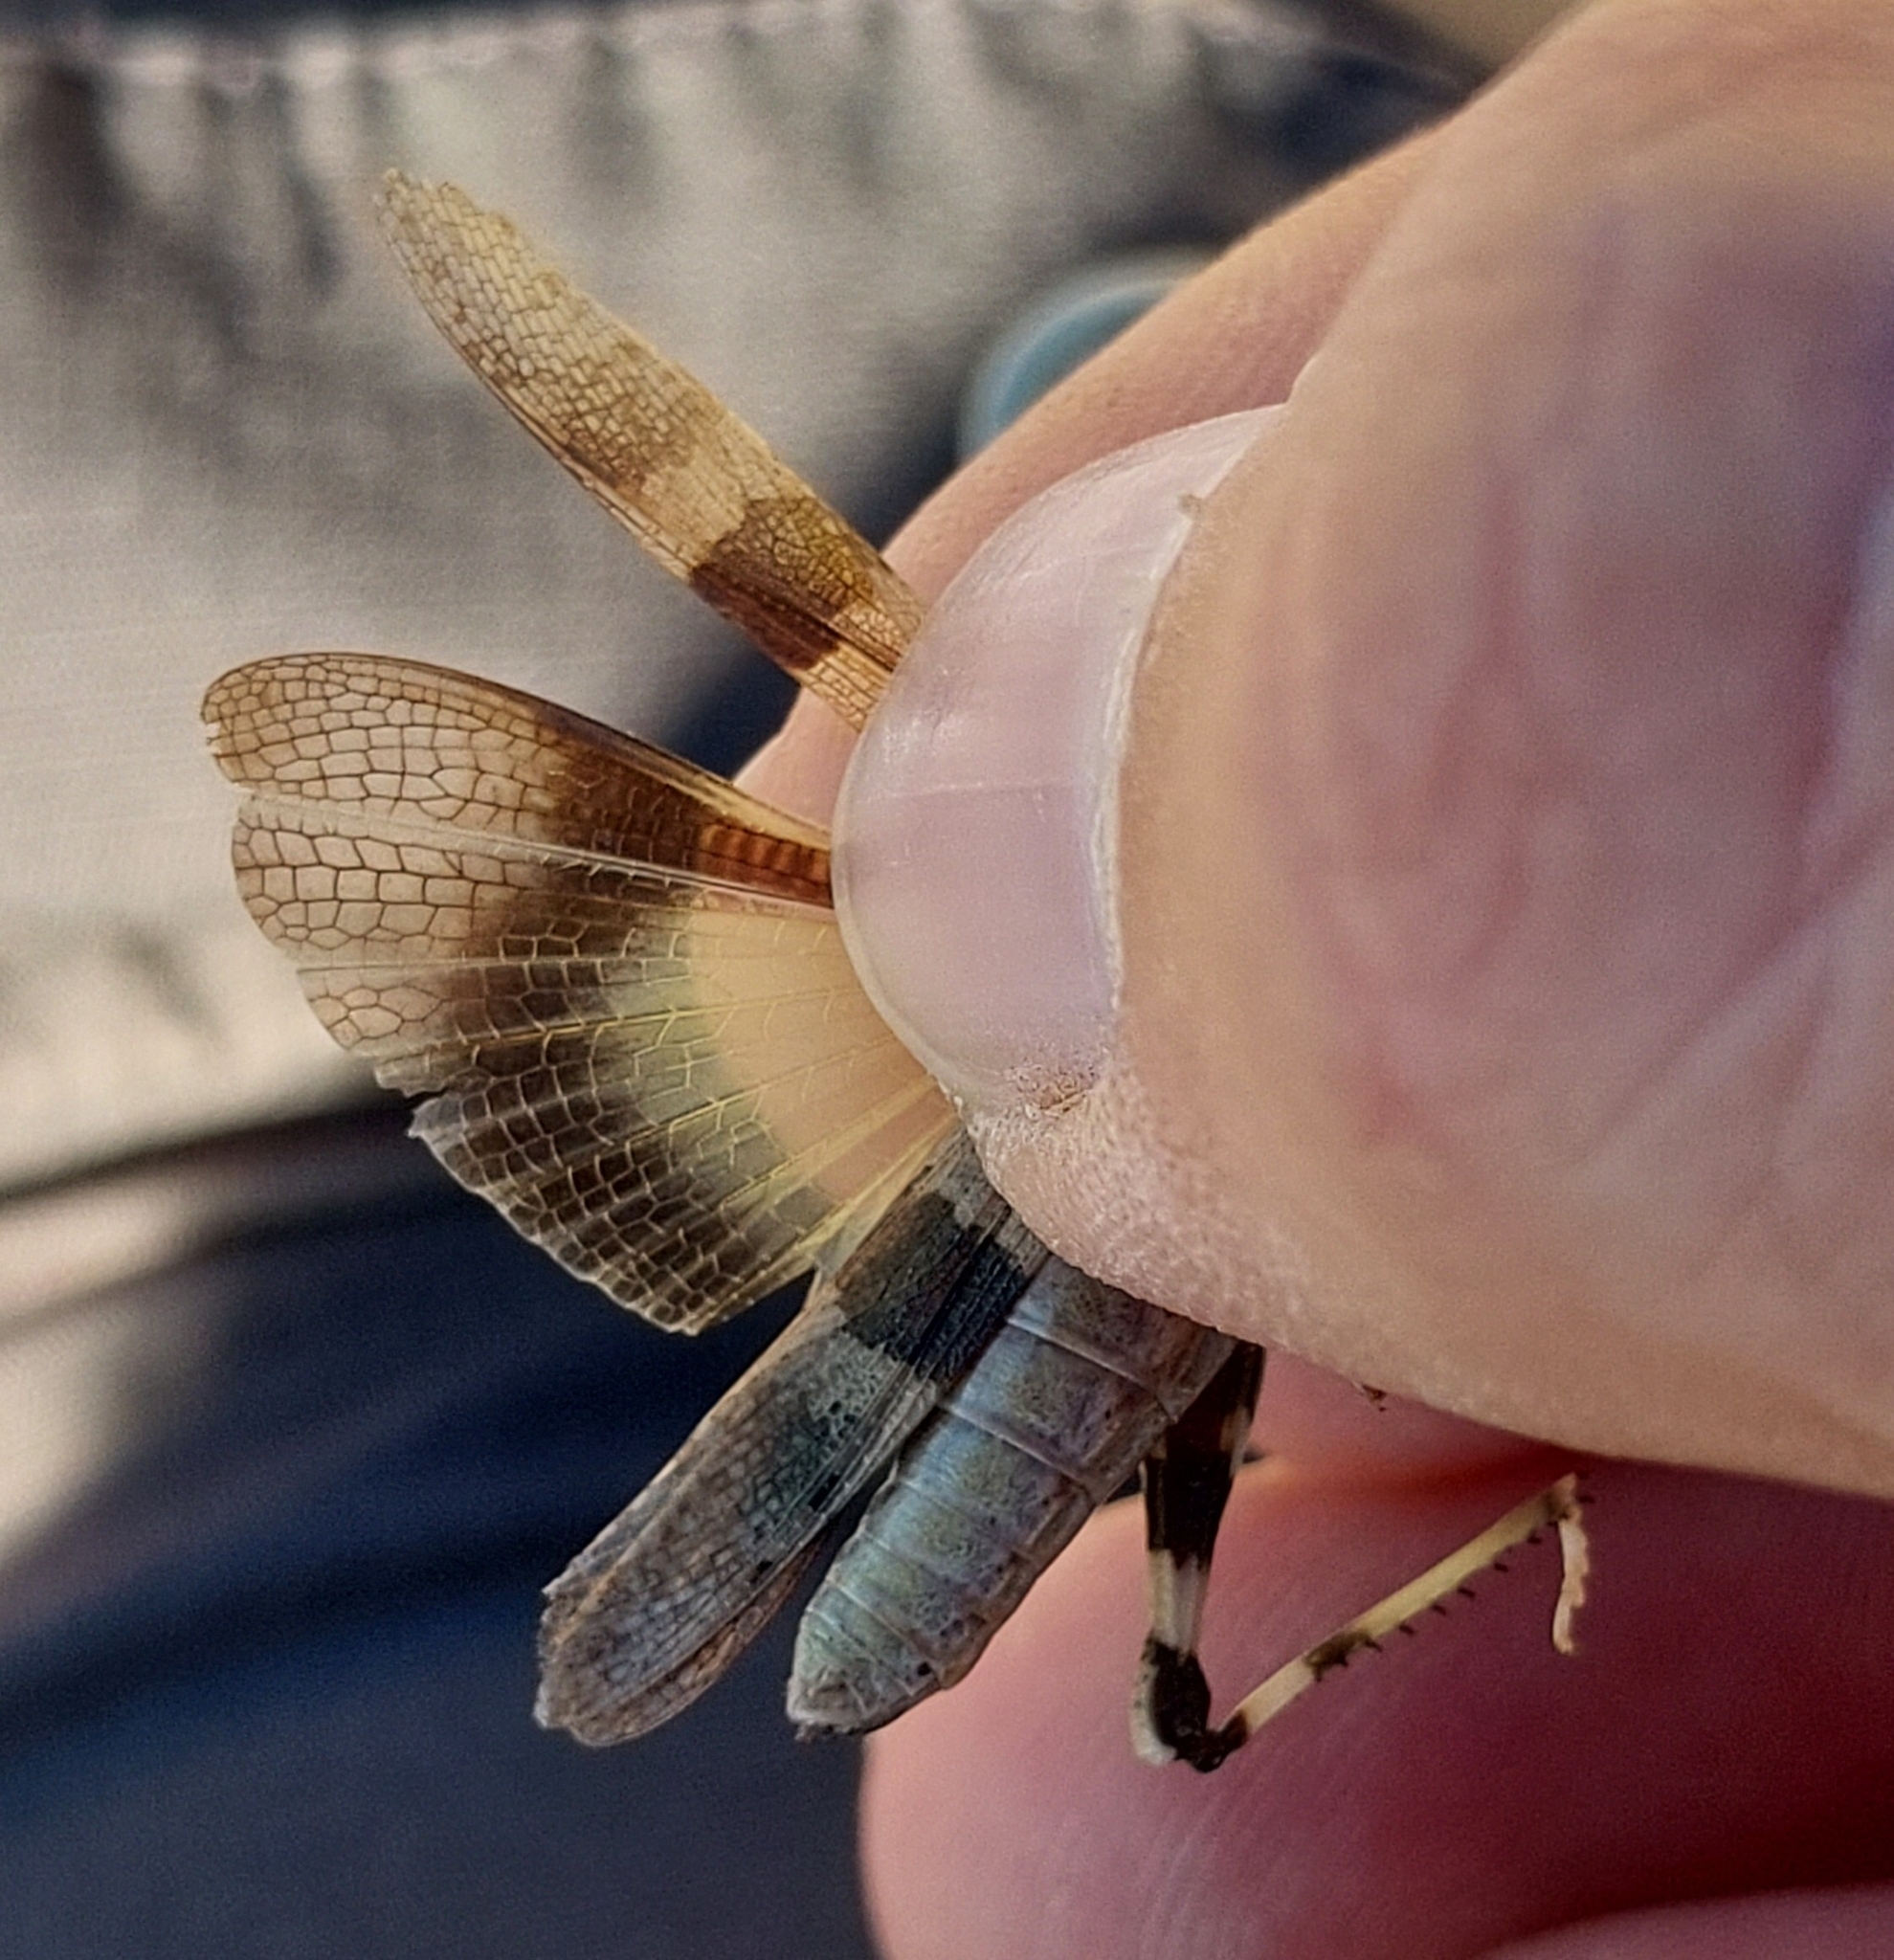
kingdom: Animalia
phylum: Arthropoda
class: Insecta
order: Orthoptera
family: Acrididae
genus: Acrotylus
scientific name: Acrotylus longipes
